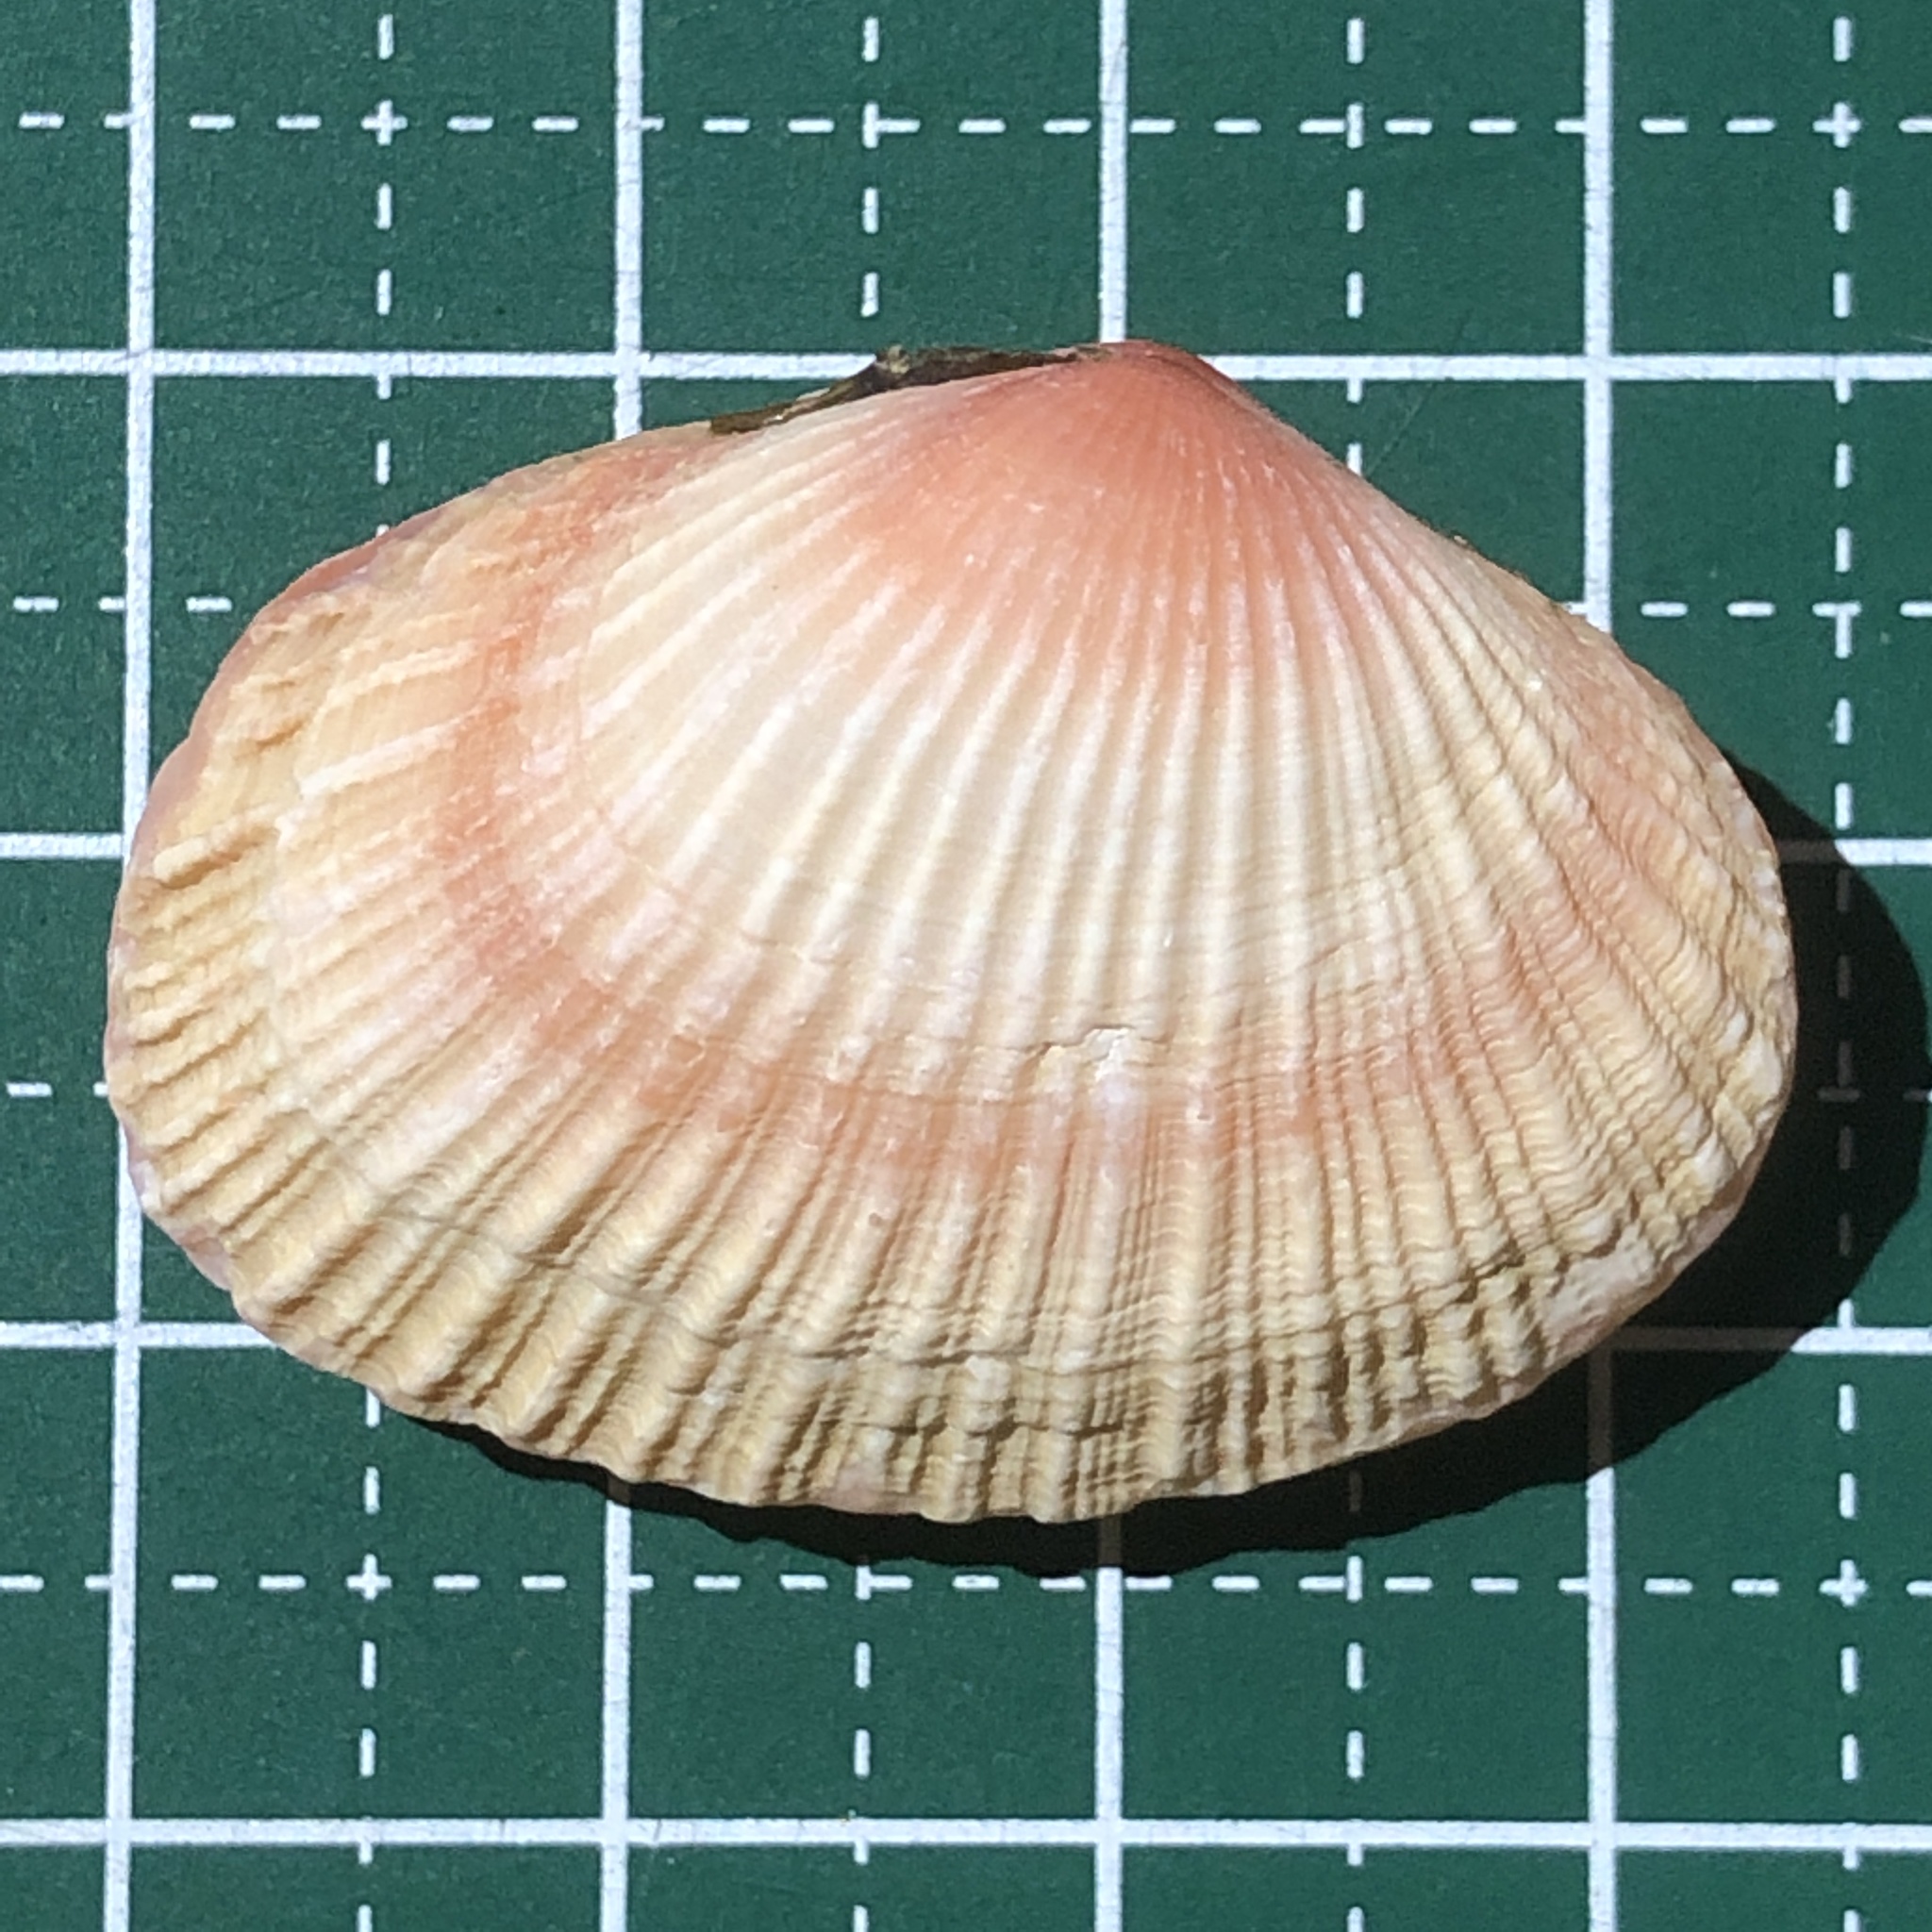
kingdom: Animalia
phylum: Mollusca
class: Bivalvia
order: Cardiida
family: Psammobiidae
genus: Asaphis
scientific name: Asaphis violascens
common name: Pacific asaphis
